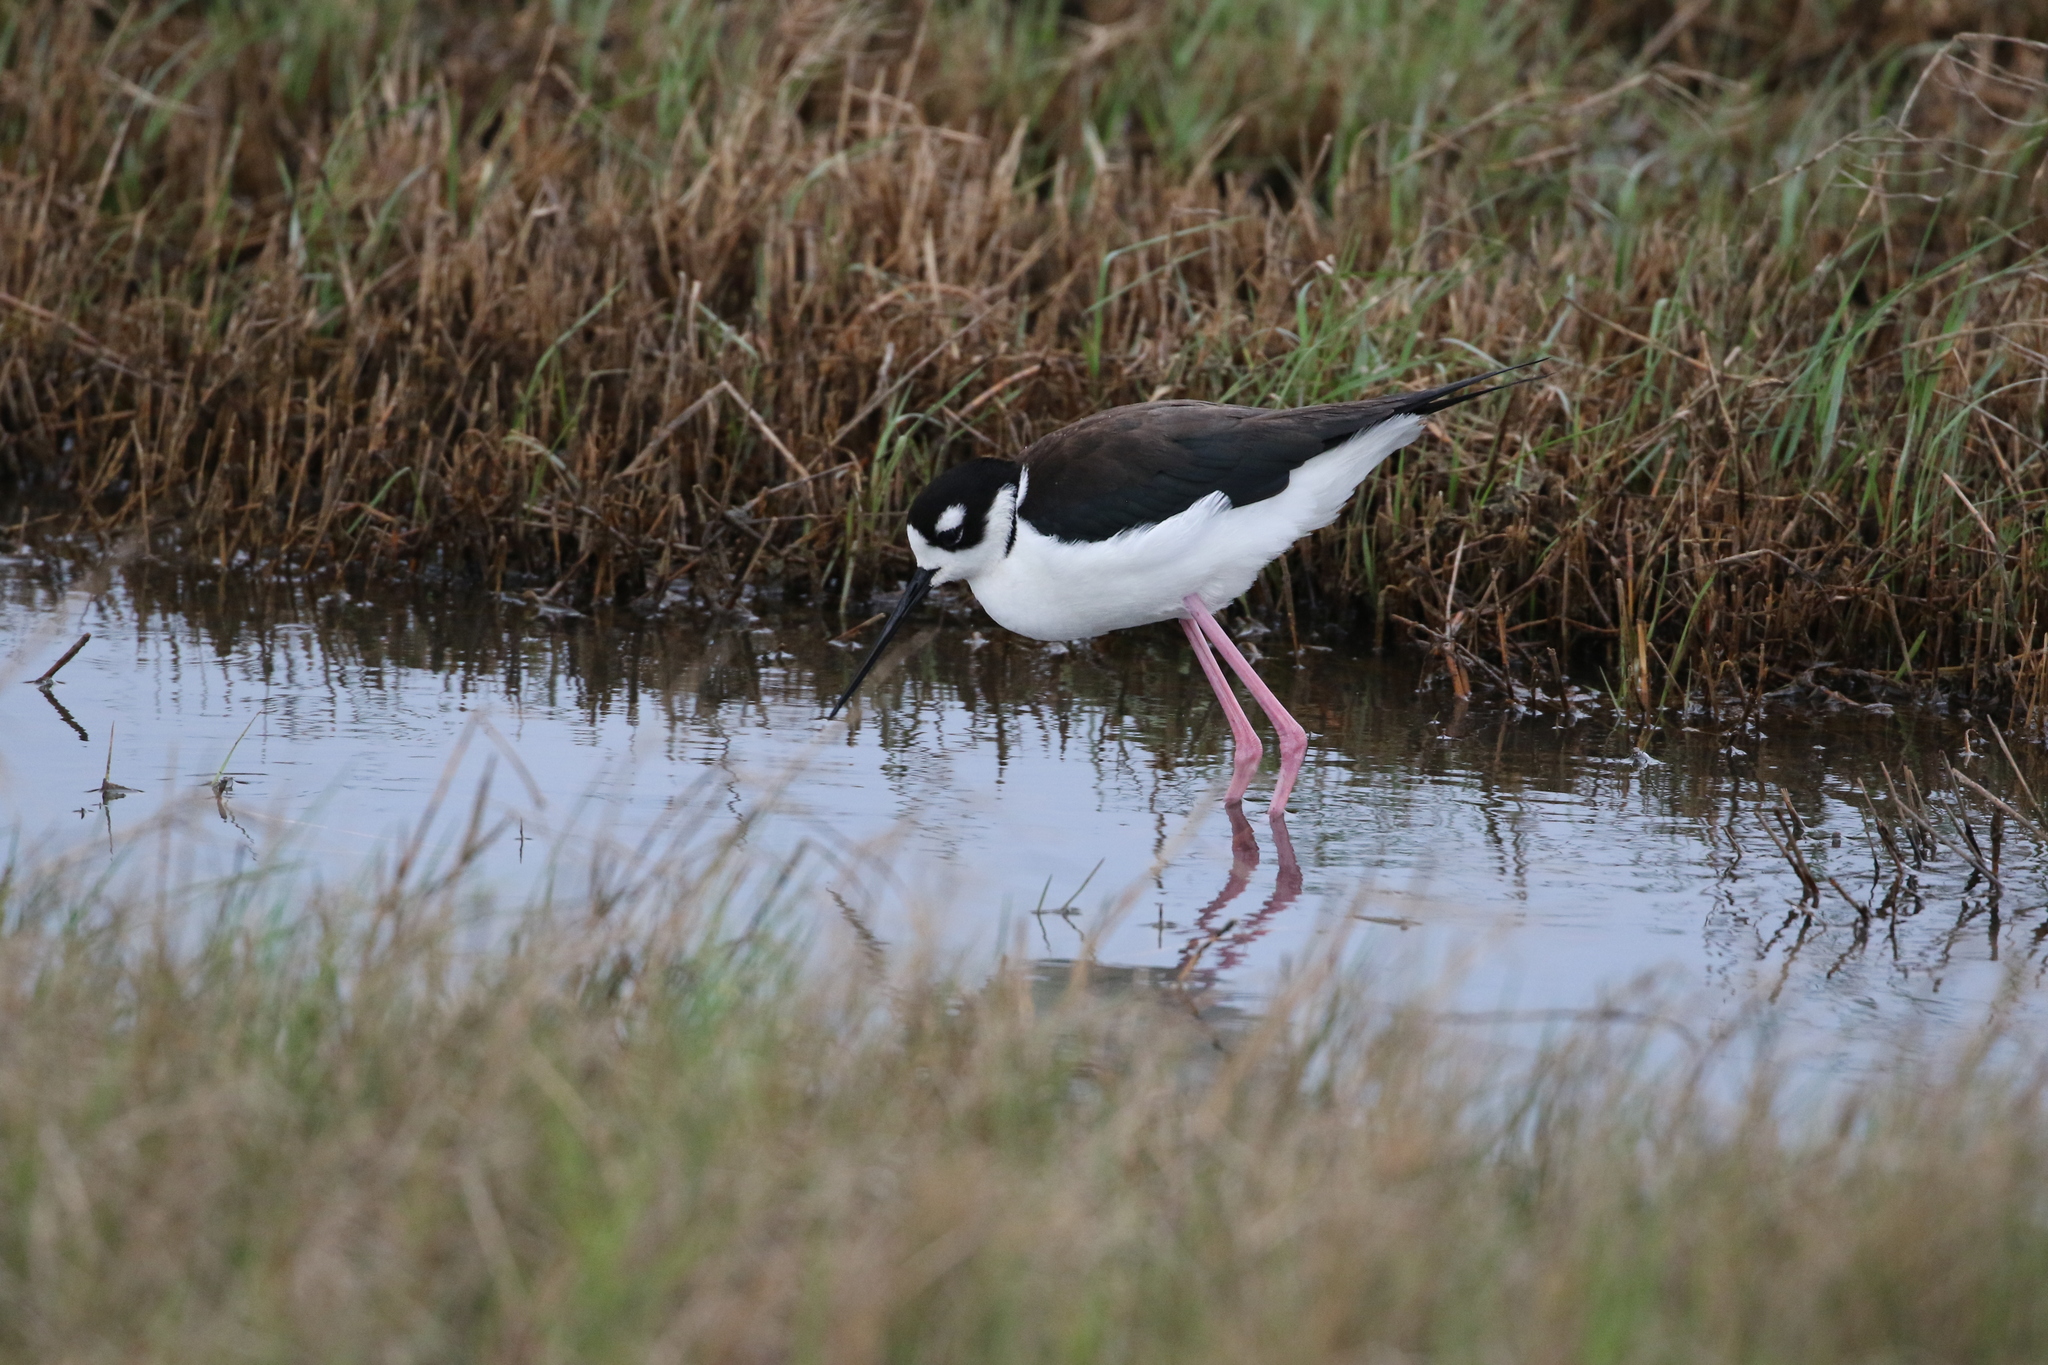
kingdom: Animalia
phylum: Chordata
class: Aves
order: Charadriiformes
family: Recurvirostridae
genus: Himantopus
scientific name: Himantopus mexicanus
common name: Black-necked stilt
